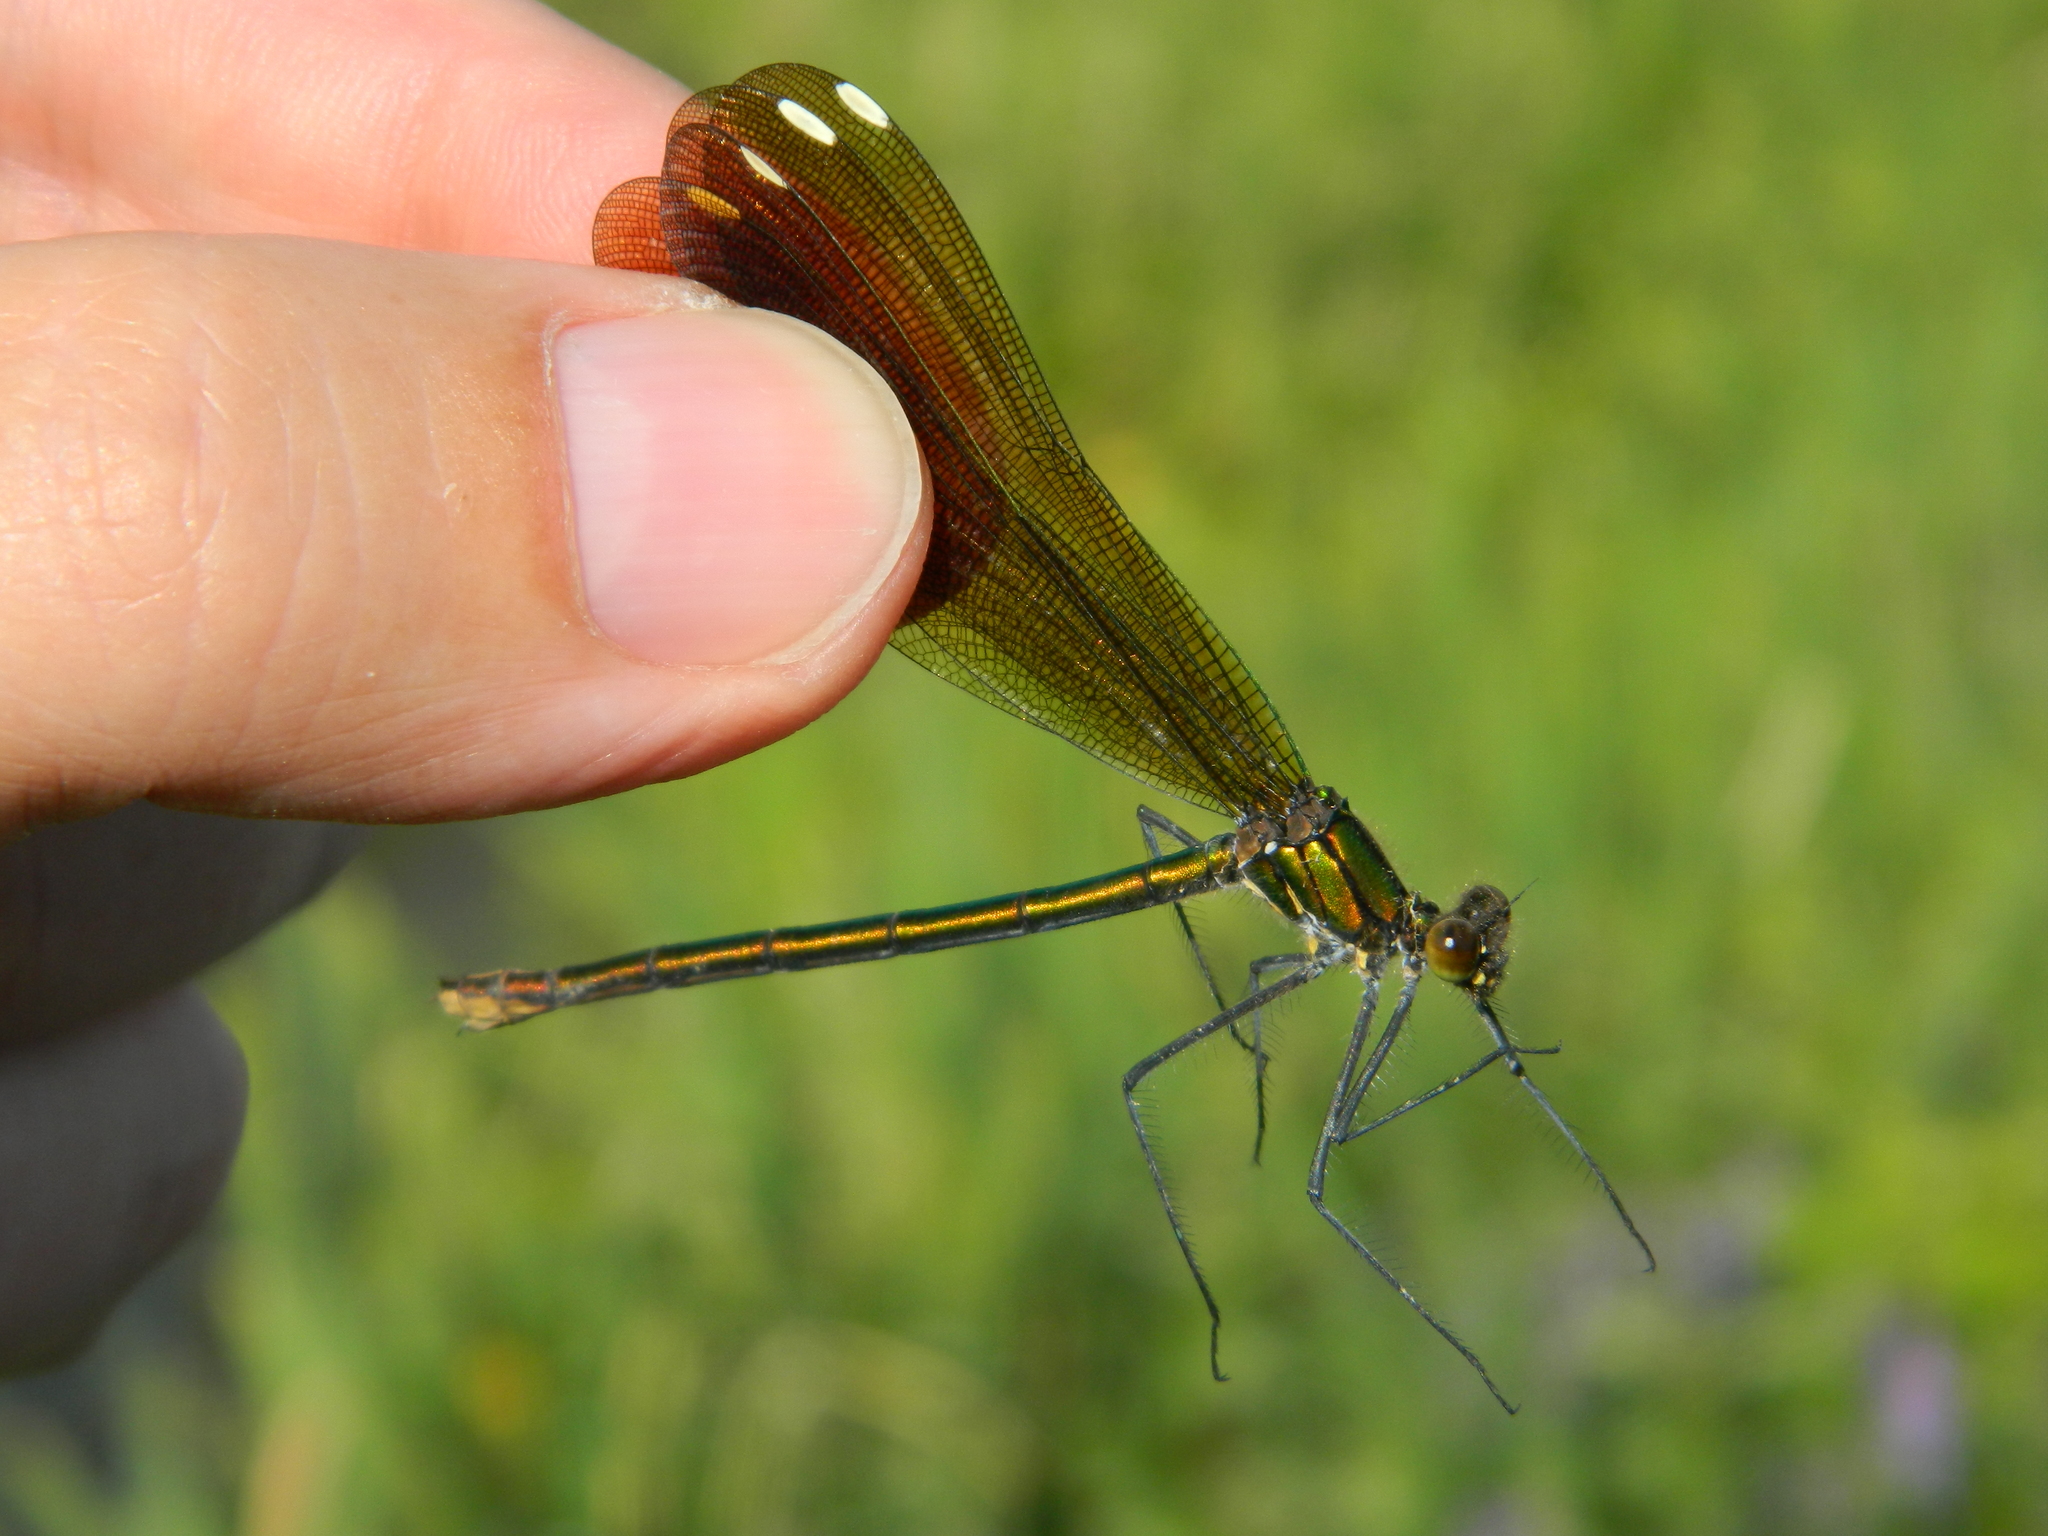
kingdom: Animalia
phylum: Arthropoda
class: Insecta
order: Odonata
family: Calopterygidae
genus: Calopteryx
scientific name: Calopteryx aequabilis
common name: River jewelwing
